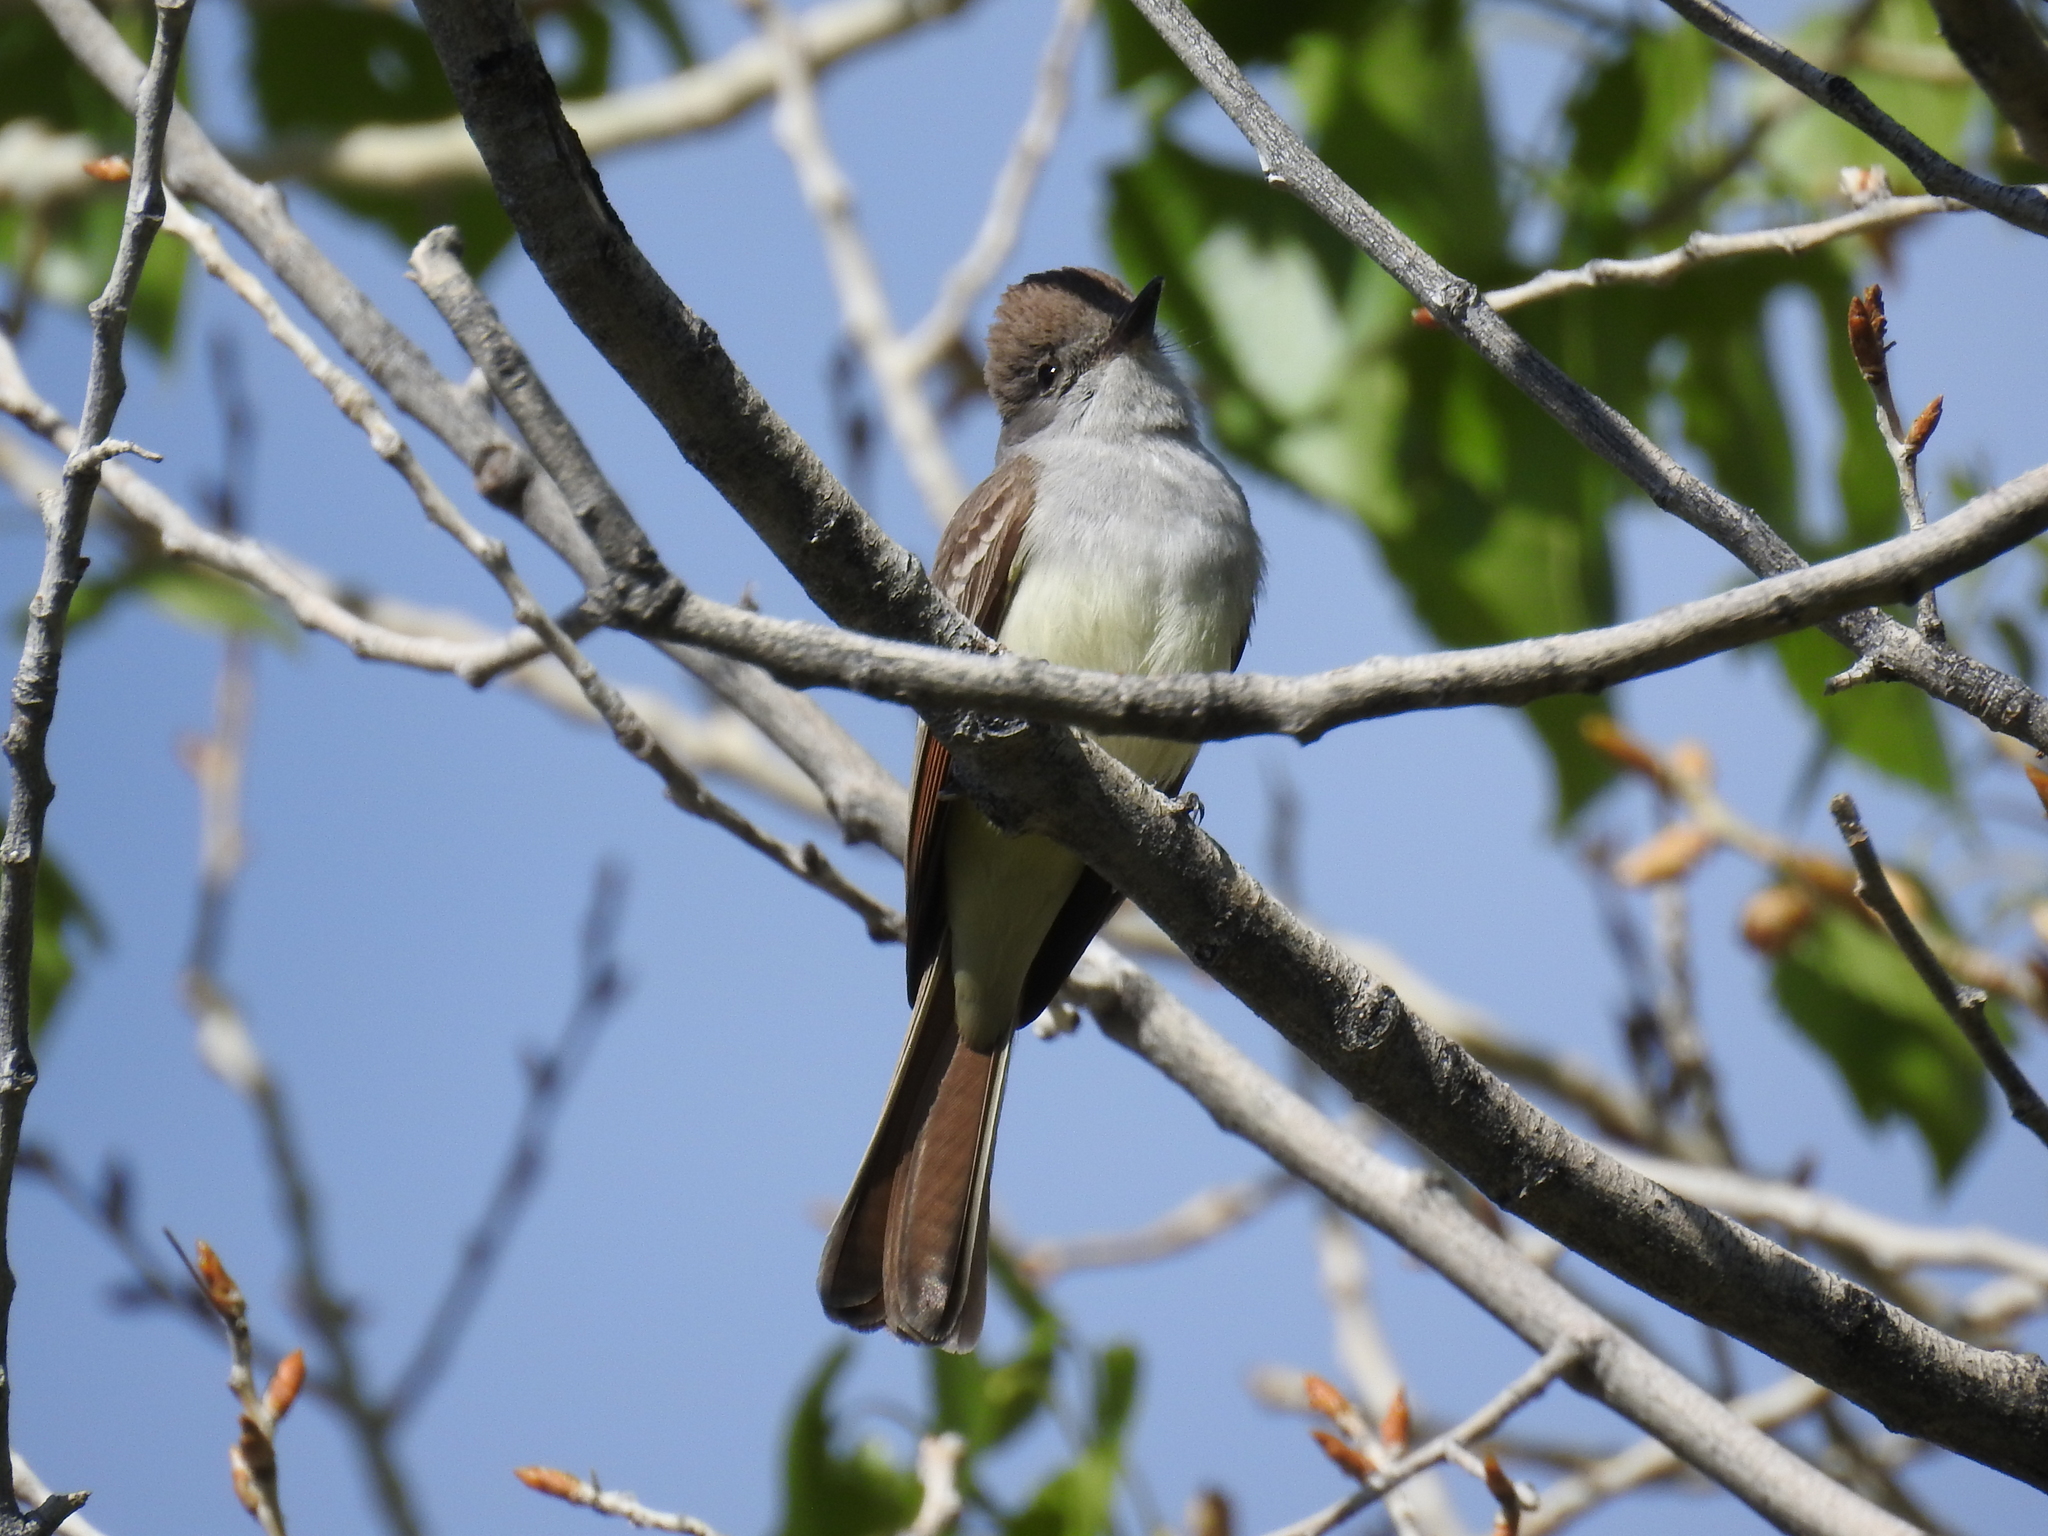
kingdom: Animalia
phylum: Chordata
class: Aves
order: Passeriformes
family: Tyrannidae
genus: Myiarchus
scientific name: Myiarchus cinerascens
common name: Ash-throated flycatcher
